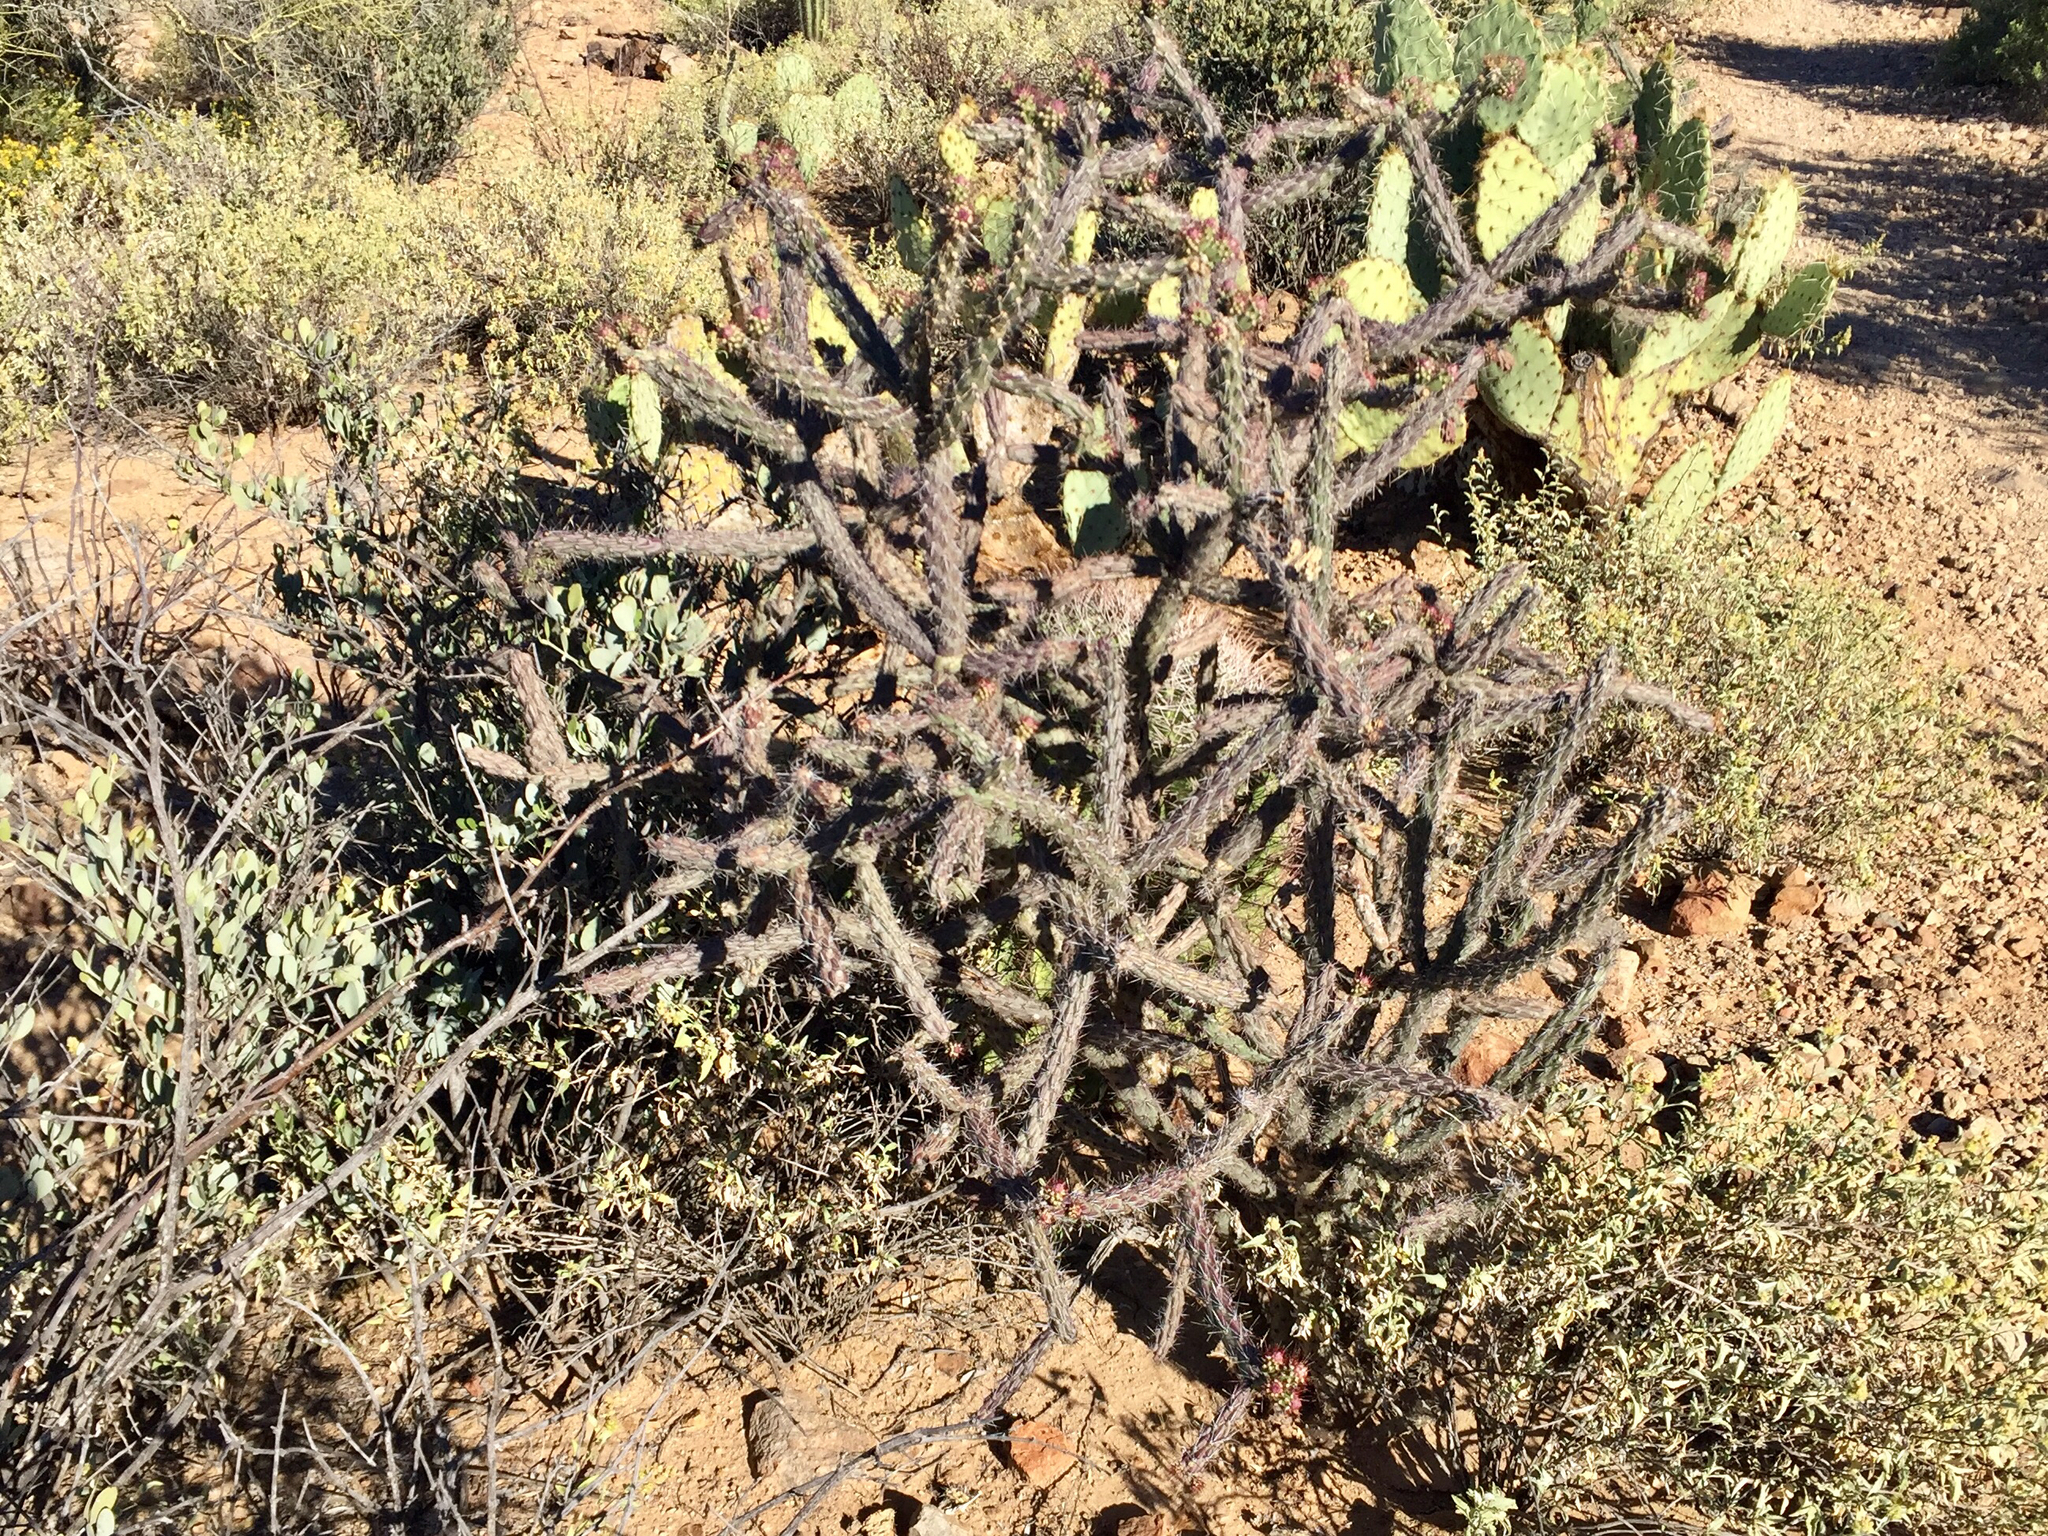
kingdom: Plantae
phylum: Tracheophyta
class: Magnoliopsida
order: Caryophyllales
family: Cactaceae
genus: Cylindropuntia
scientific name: Cylindropuntia thurberi
